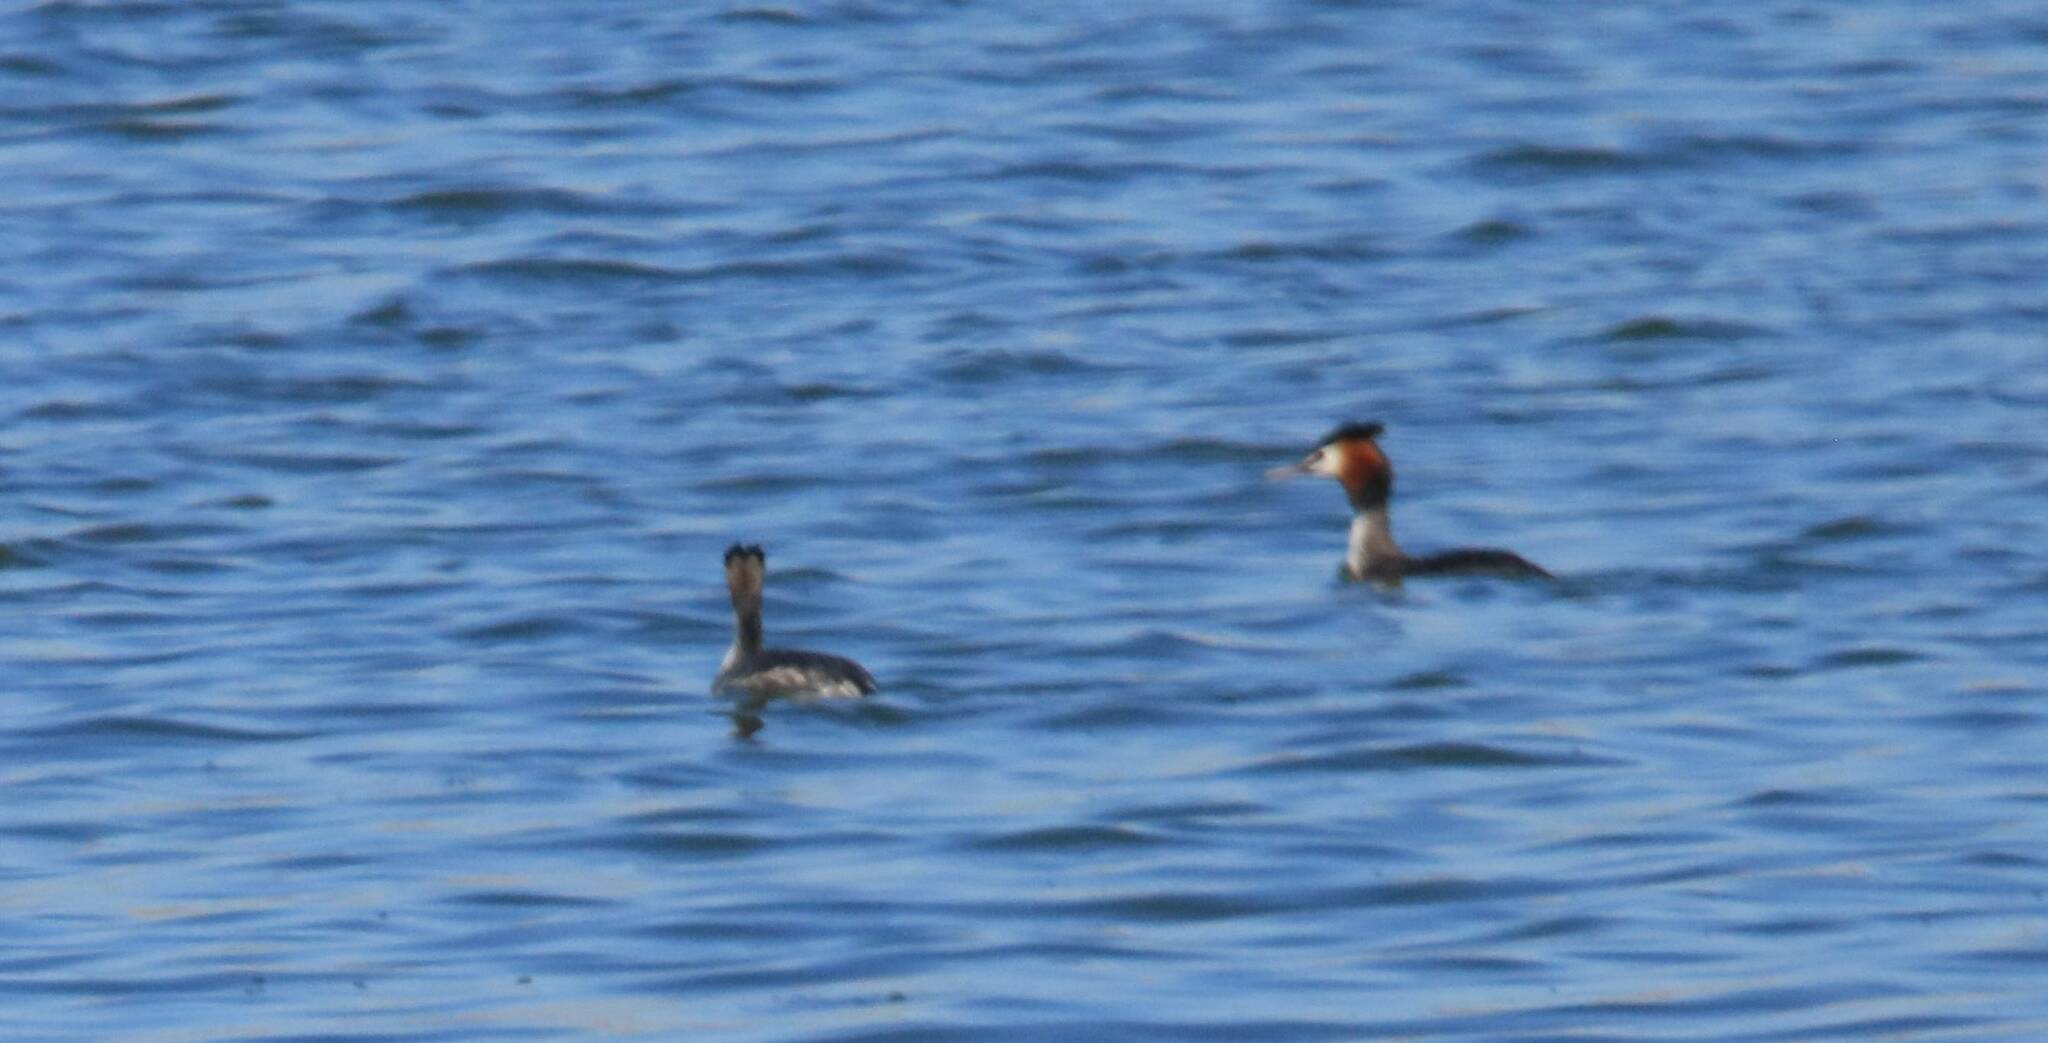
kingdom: Animalia
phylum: Chordata
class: Aves
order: Podicipediformes
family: Podicipedidae
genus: Podiceps
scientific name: Podiceps cristatus
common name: Great crested grebe
